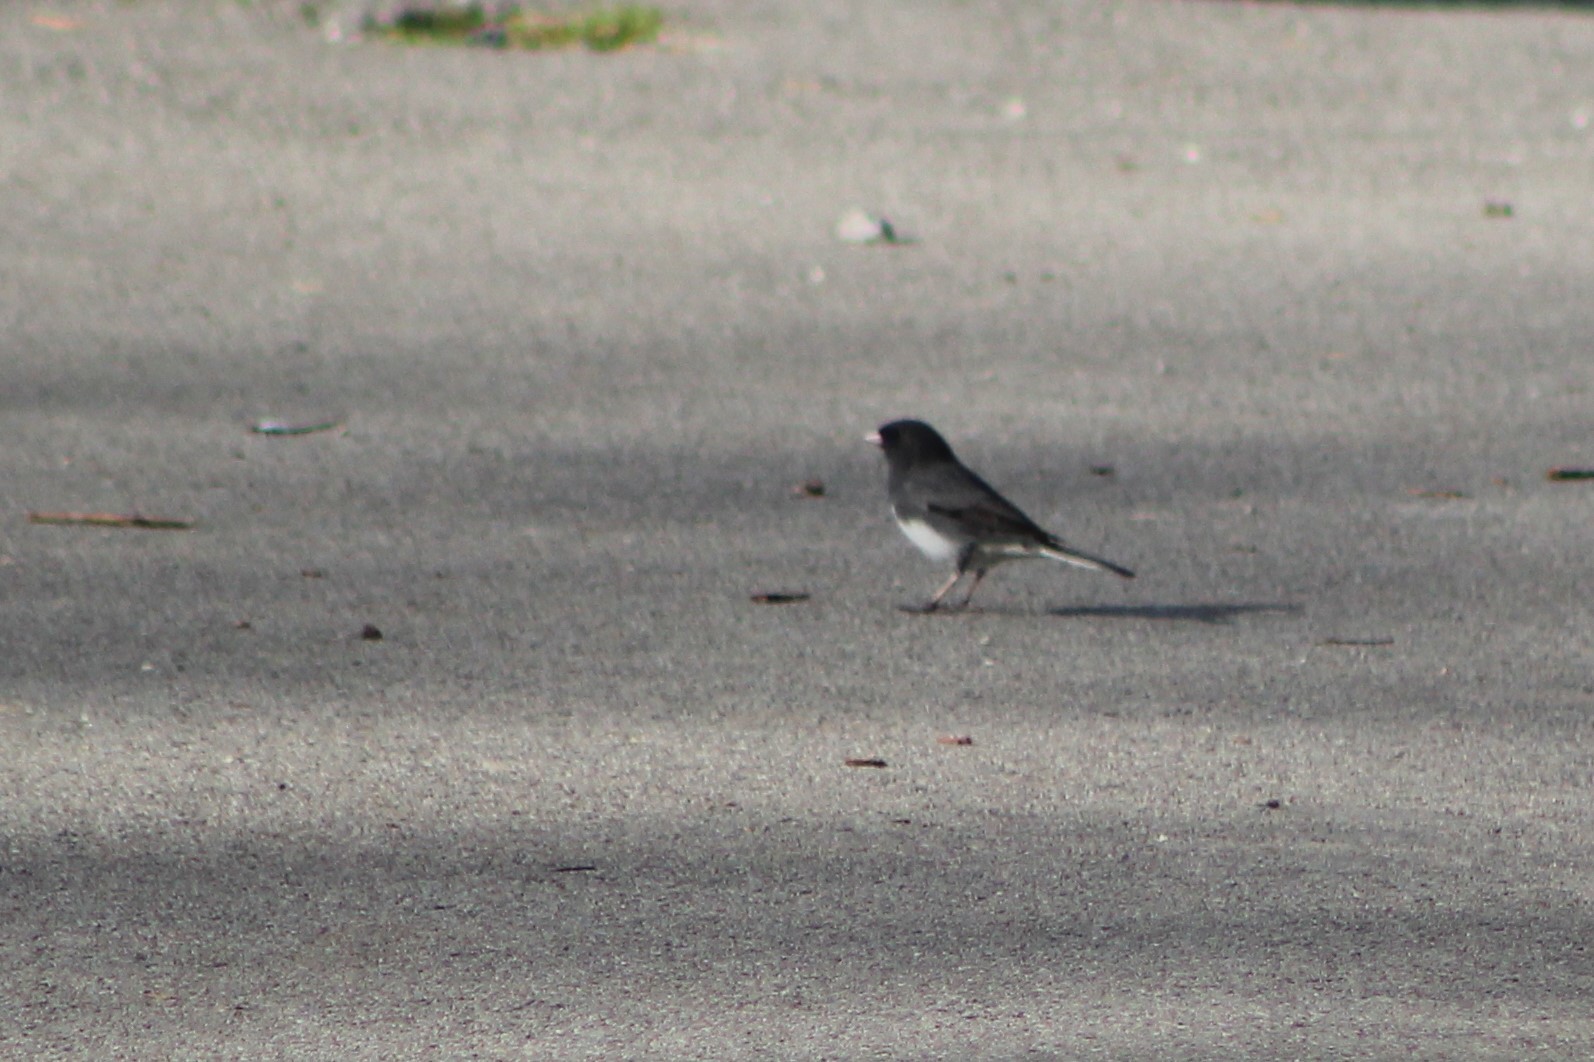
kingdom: Animalia
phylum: Chordata
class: Aves
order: Passeriformes
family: Passerellidae
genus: Junco
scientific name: Junco hyemalis
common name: Dark-eyed junco
